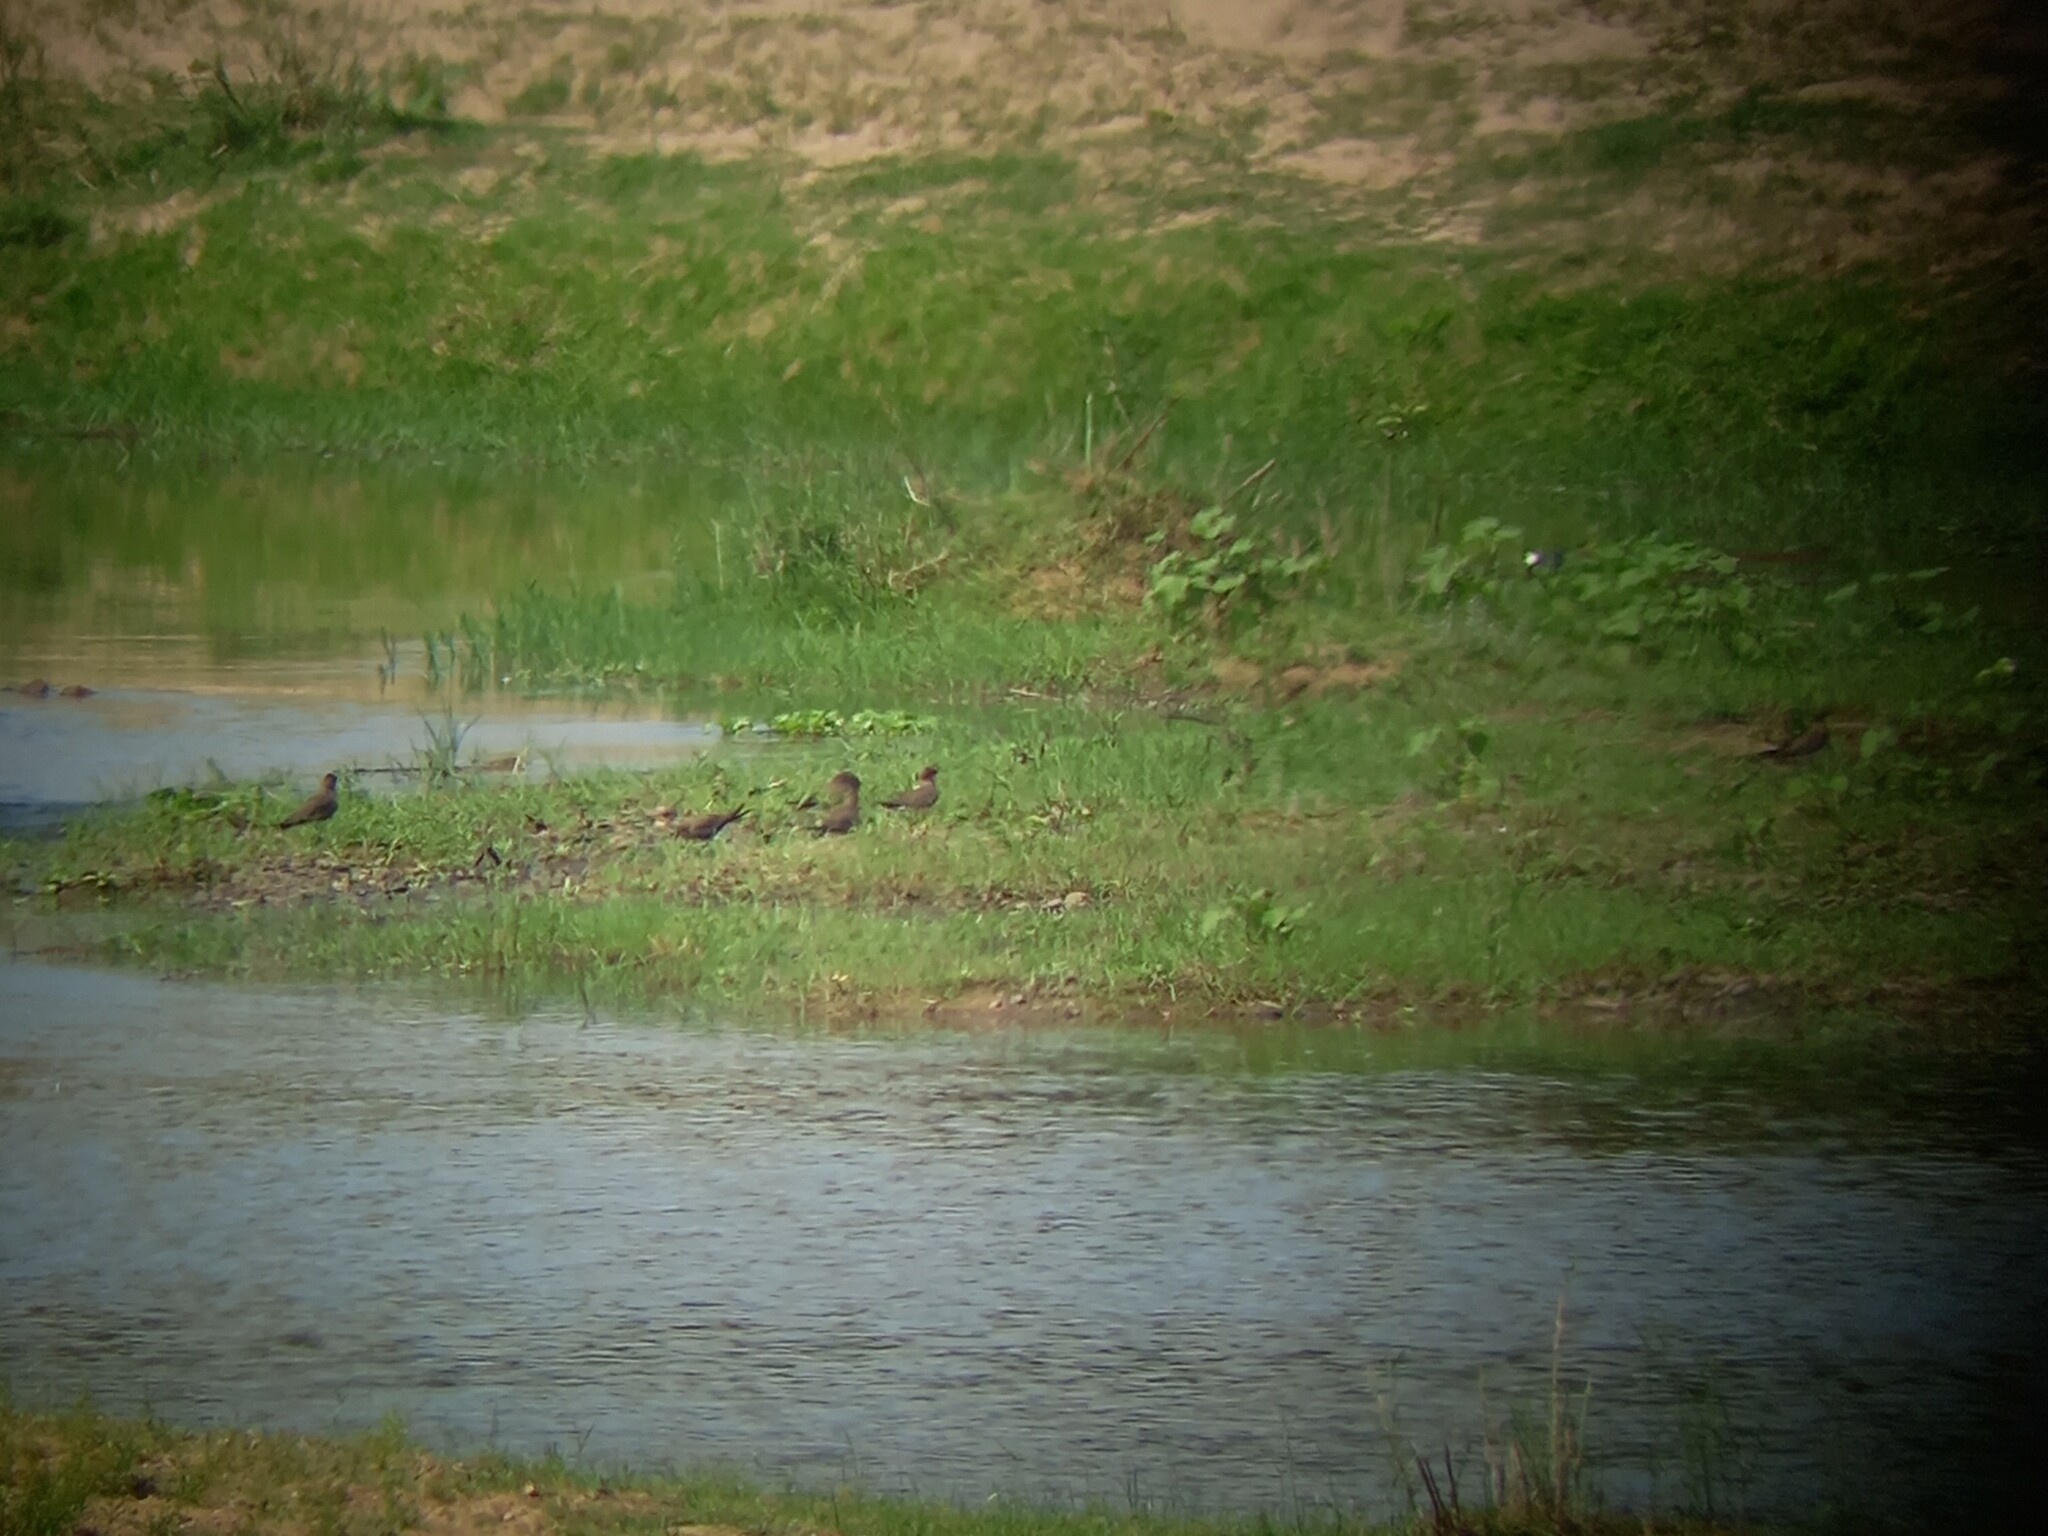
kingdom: Animalia
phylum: Chordata
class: Aves
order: Charadriiformes
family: Glareolidae
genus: Glareola
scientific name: Glareola pratincola
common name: Collared pratincole
